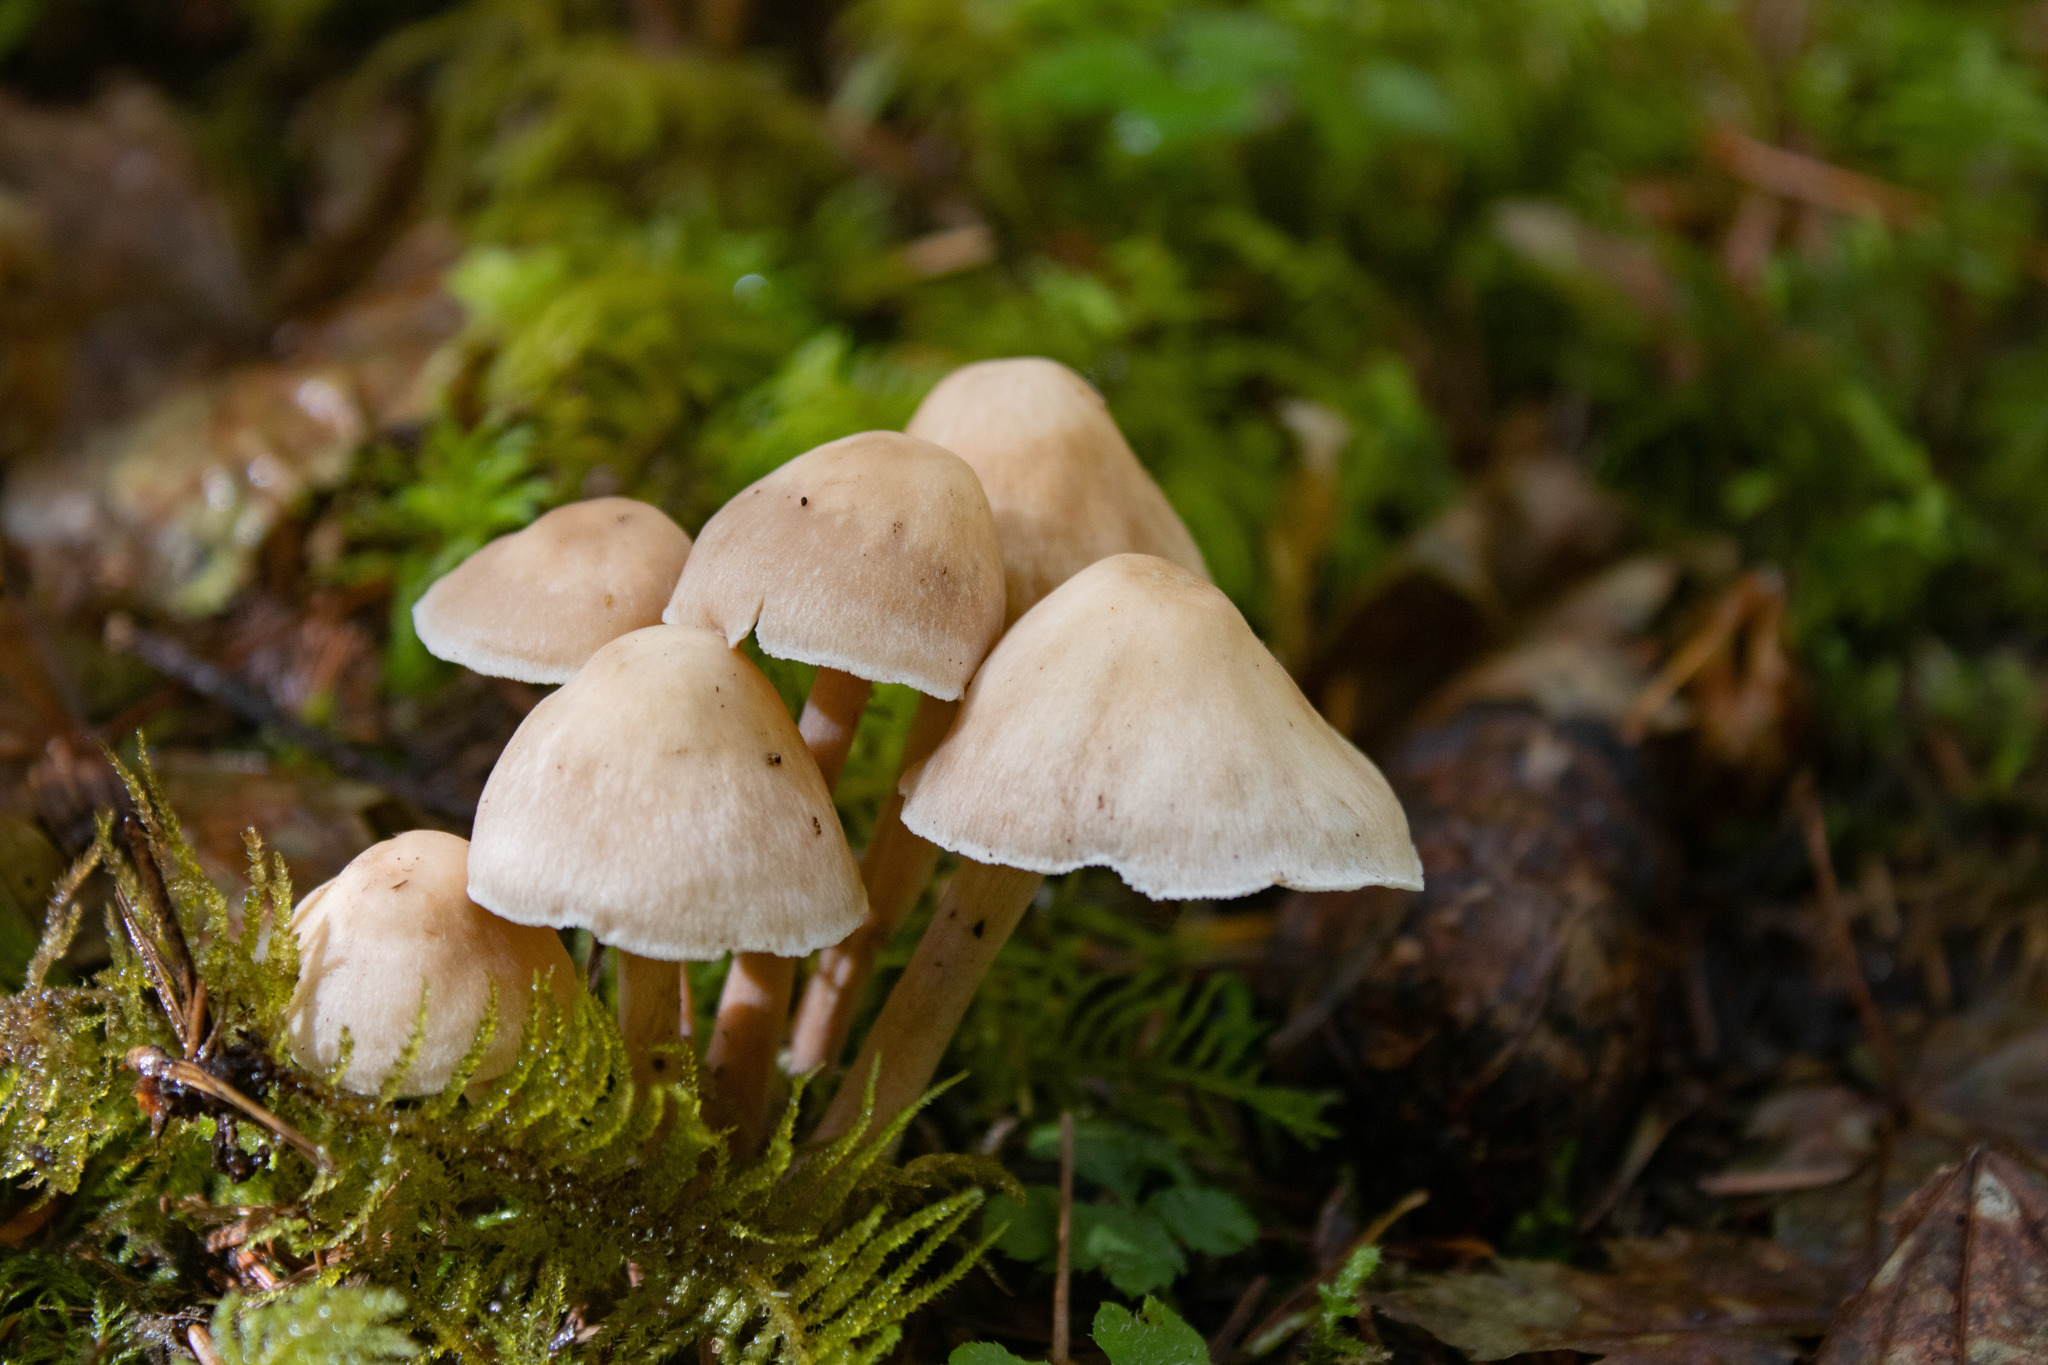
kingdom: Fungi
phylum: Basidiomycota
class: Agaricomycetes
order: Agaricales
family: Omphalotaceae
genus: Collybiopsis
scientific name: Collybiopsis confluens
